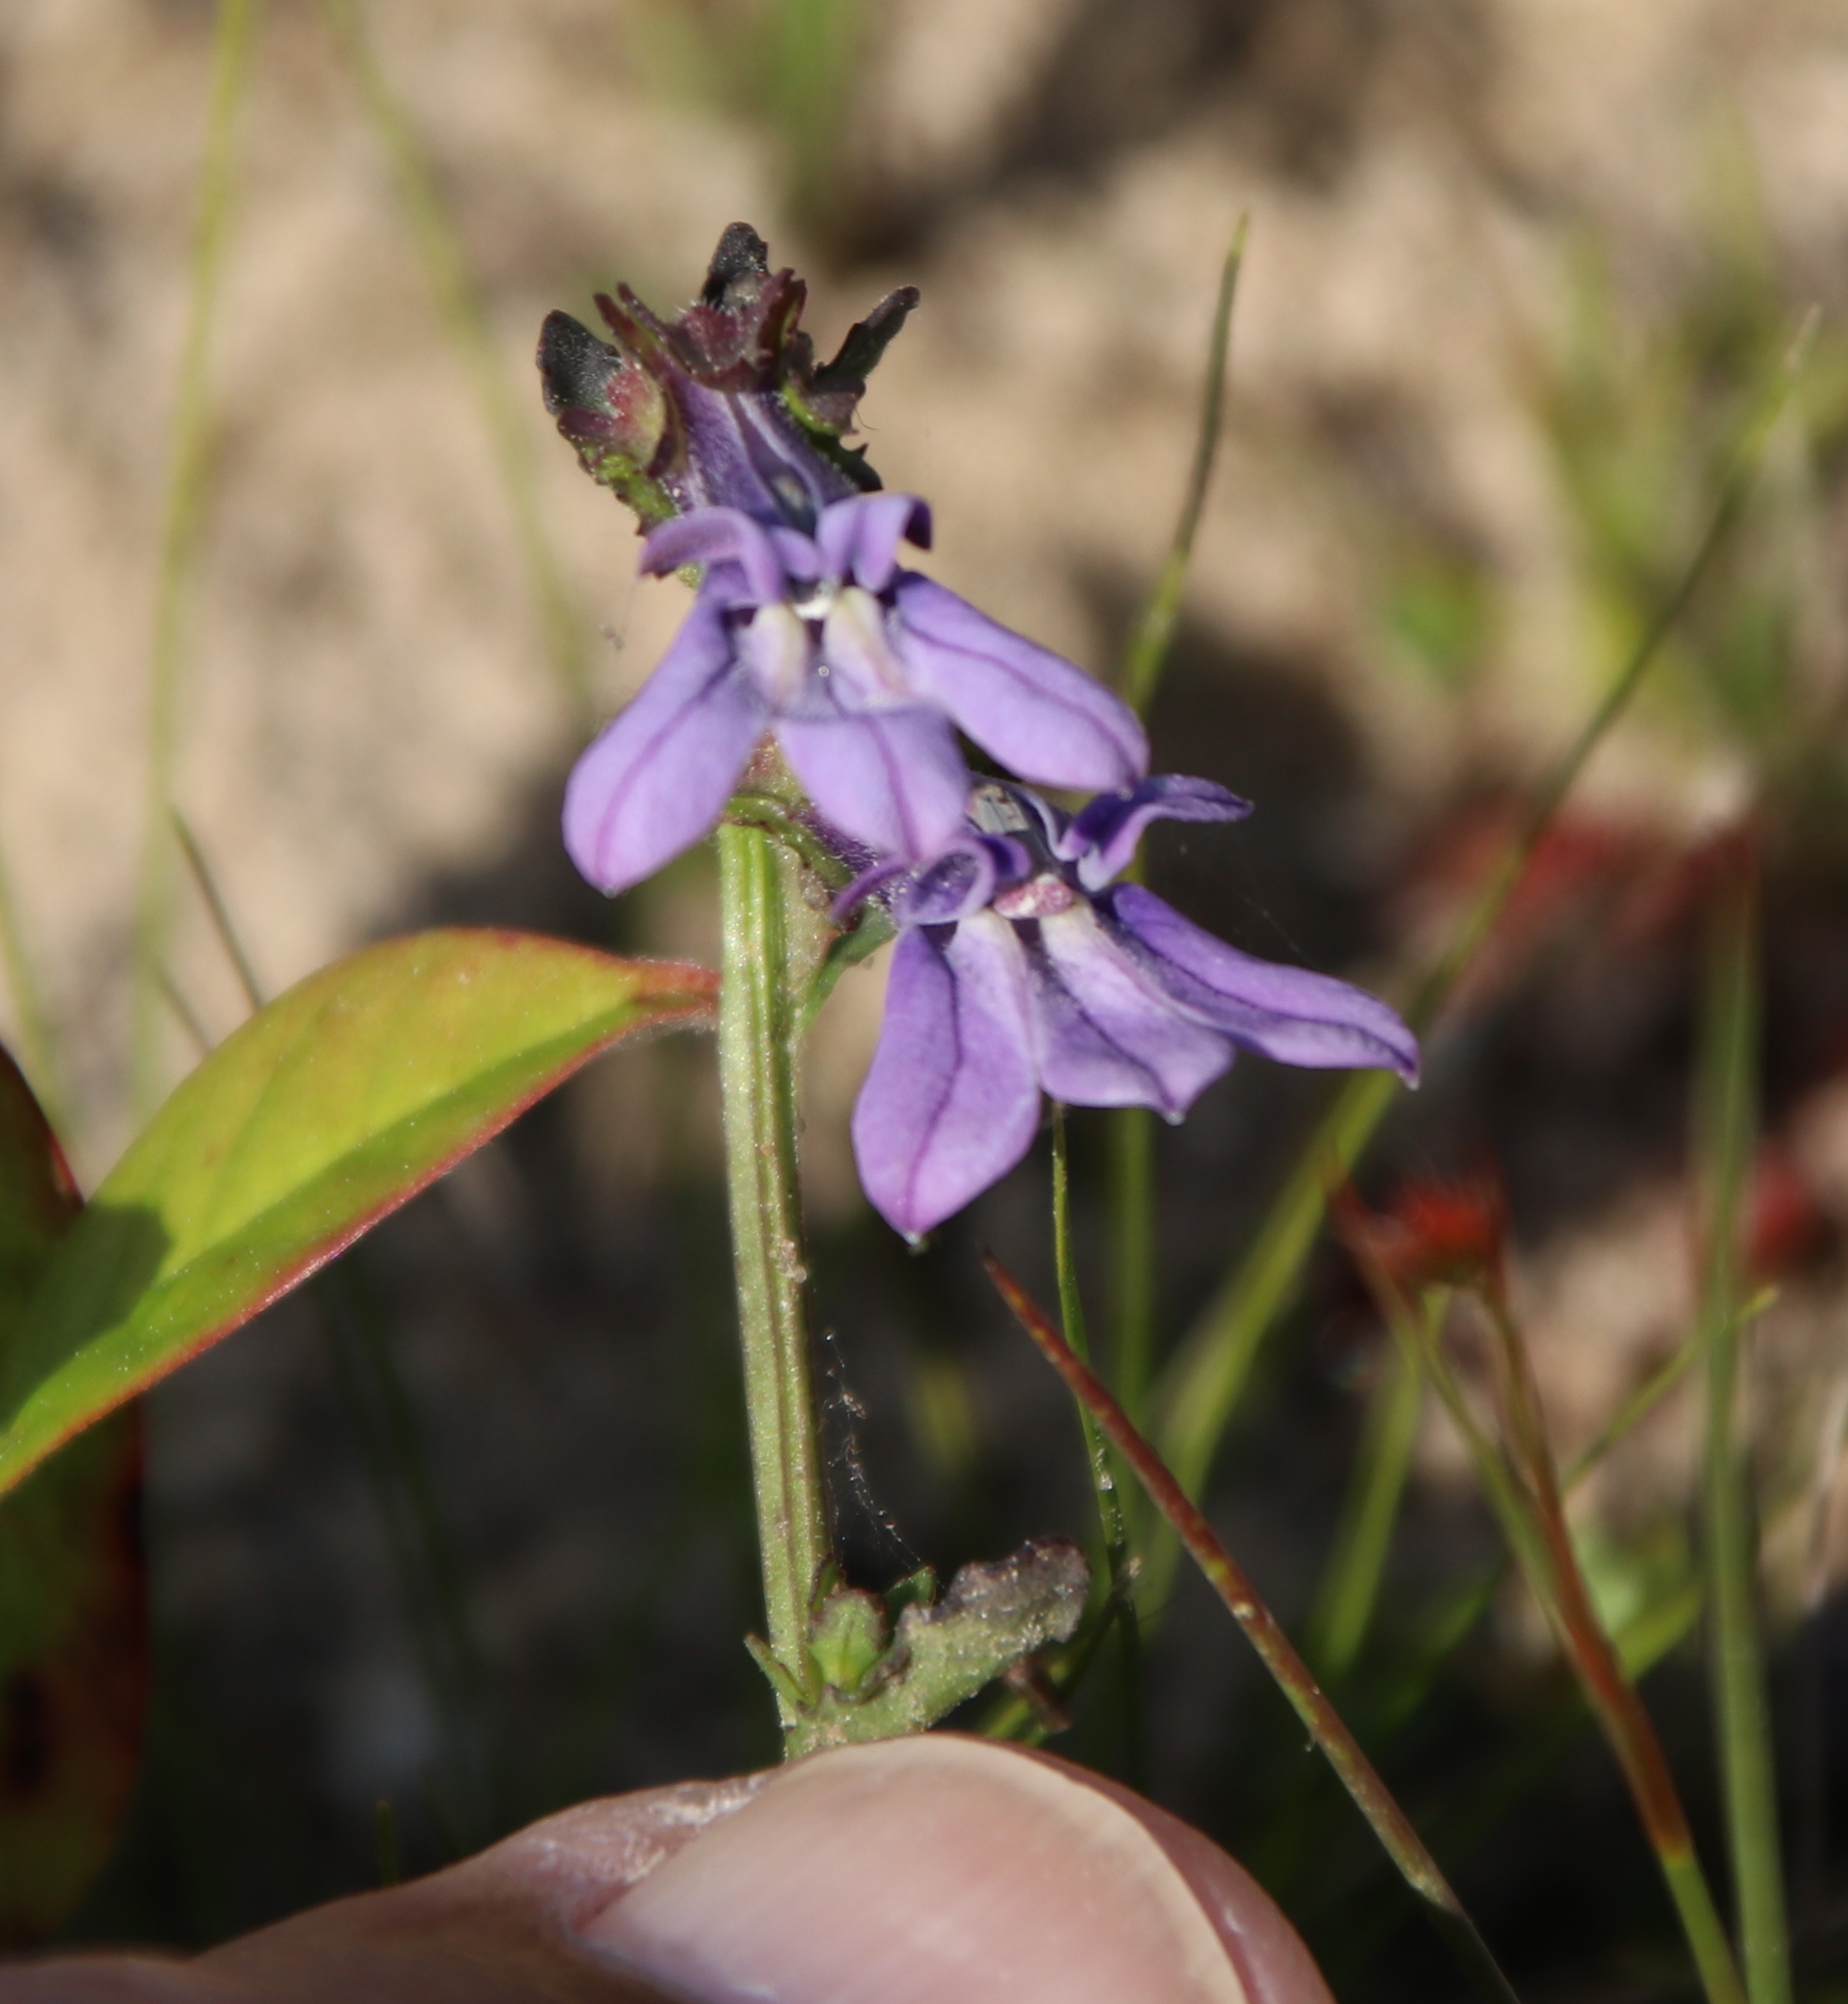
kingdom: Plantae
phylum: Tracheophyta
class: Magnoliopsida
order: Asterales
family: Campanulaceae
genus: Lobelia
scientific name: Lobelia brevifolia
